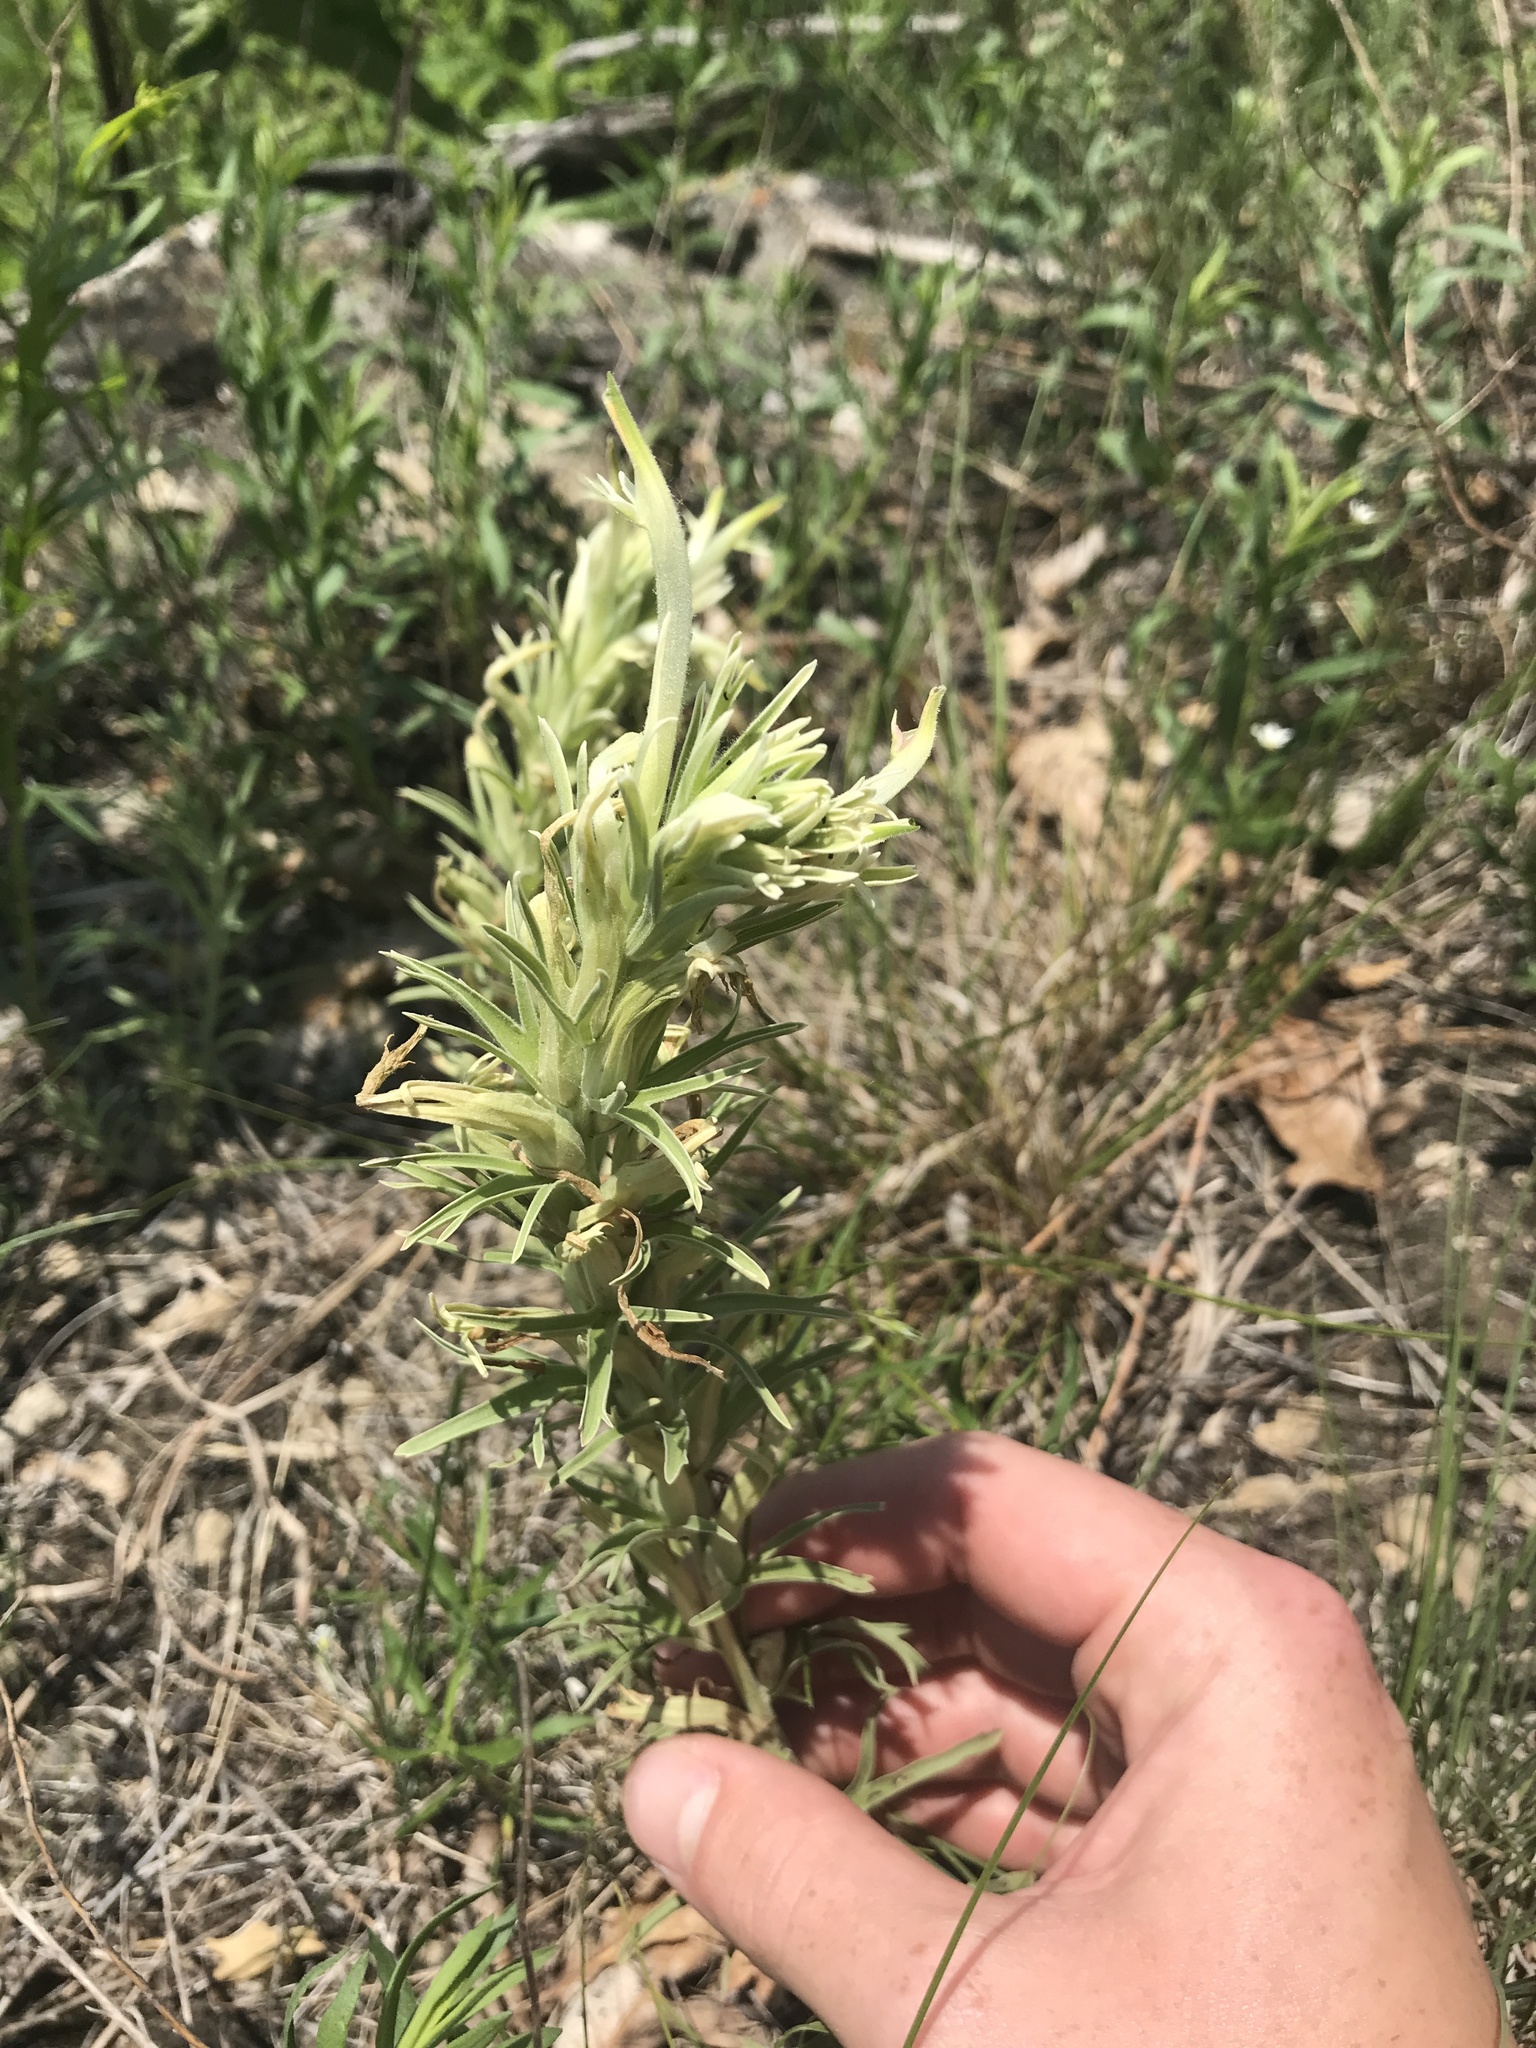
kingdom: Plantae
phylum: Tracheophyta
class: Magnoliopsida
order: Lamiales
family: Orobanchaceae
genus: Castilleja
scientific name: Castilleja sessiliflora
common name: Downy paintbrush
